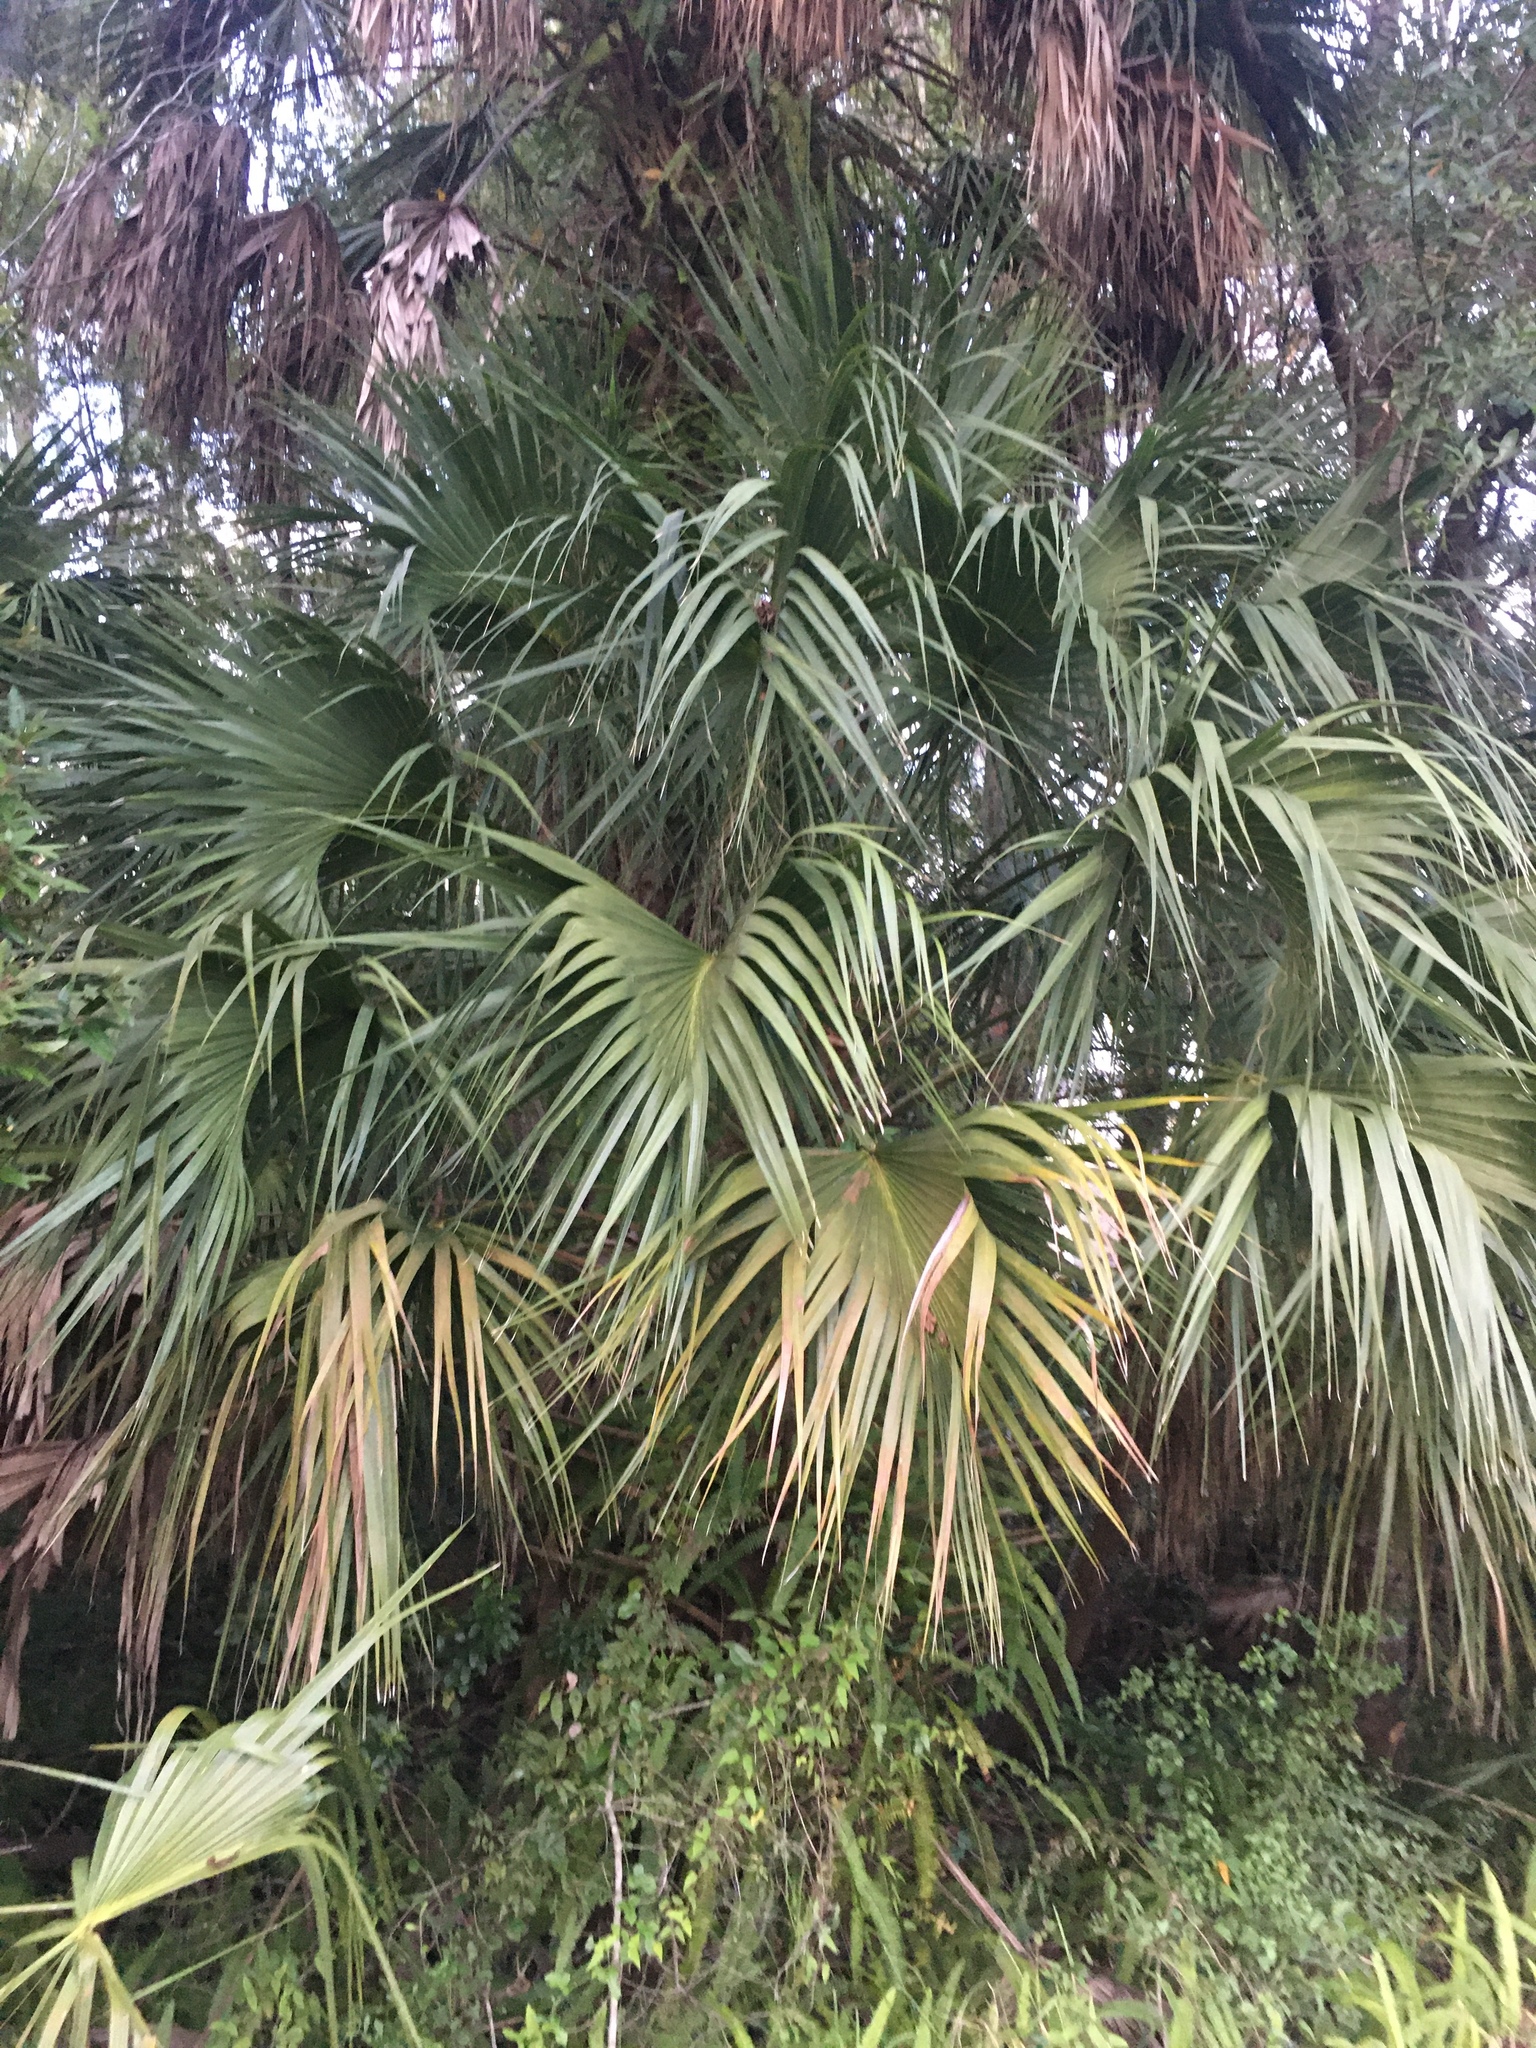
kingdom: Plantae
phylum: Tracheophyta
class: Liliopsida
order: Arecales
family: Arecaceae
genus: Sabal
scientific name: Sabal palmetto
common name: Blue palmetto
